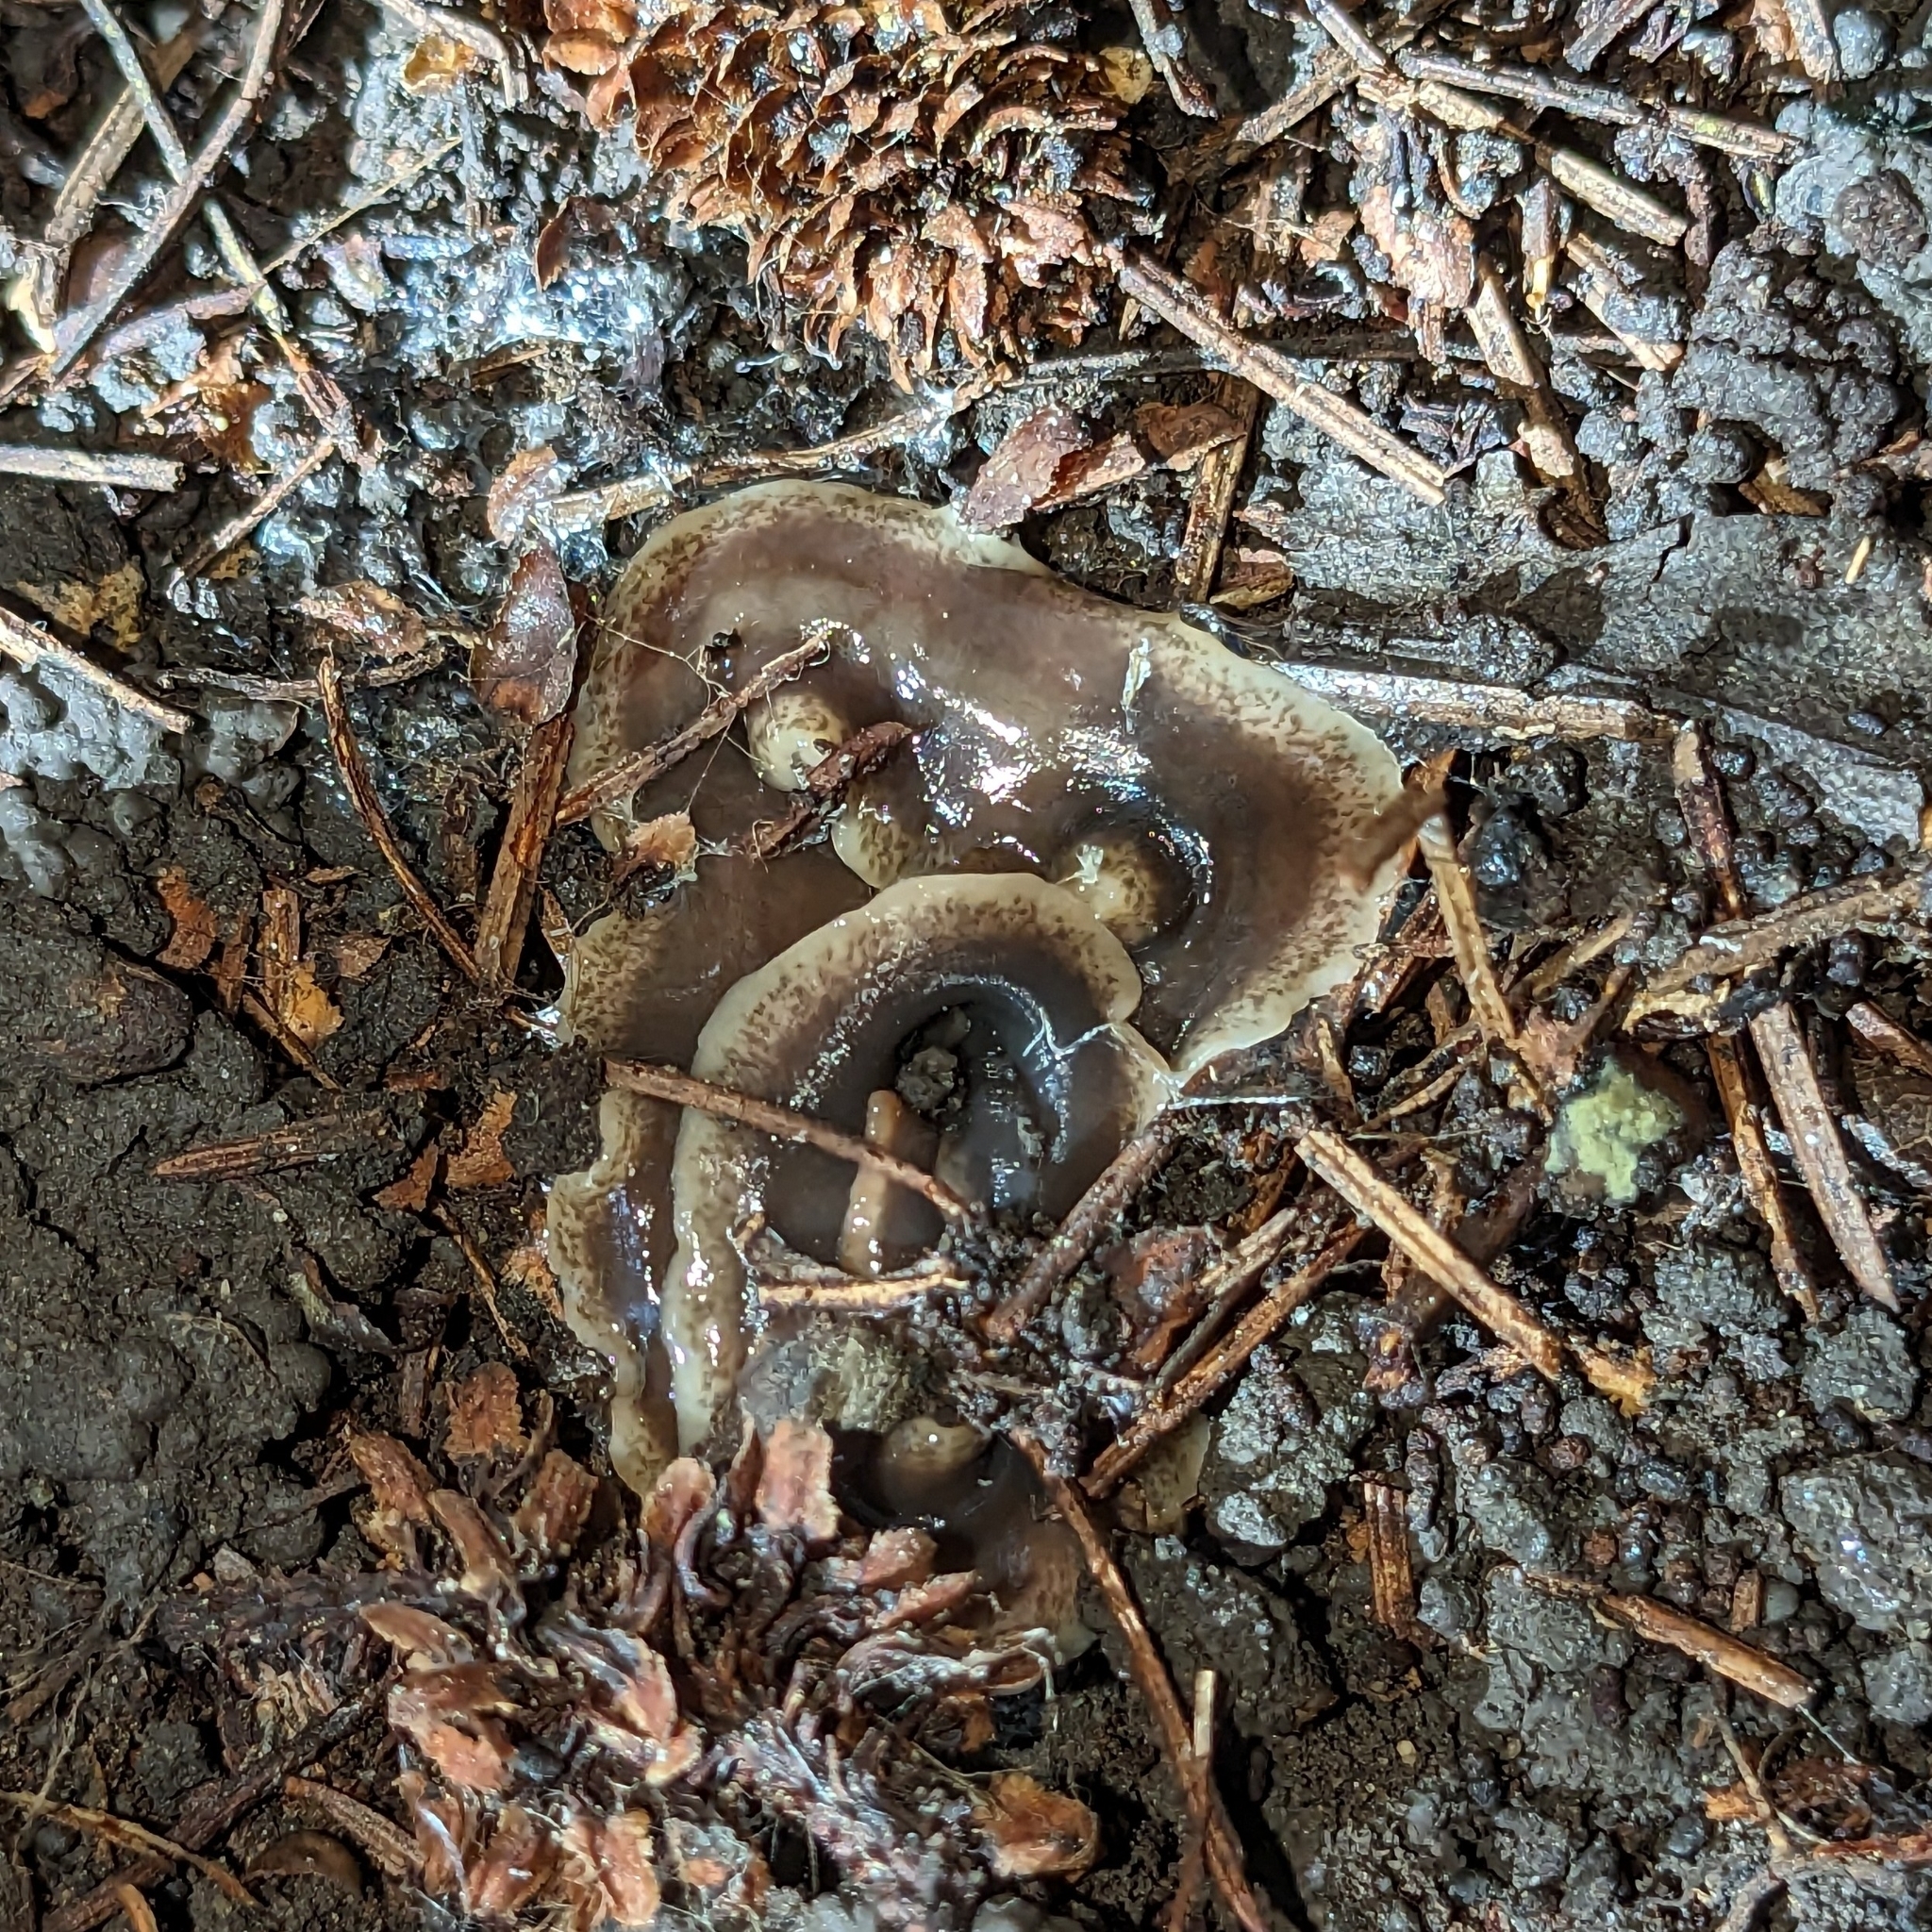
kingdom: Animalia
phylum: Platyhelminthes
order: Tricladida
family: Geoplanidae
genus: Arthurdendyus
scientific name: Arthurdendyus triangulatus
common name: New zealand flatworm
